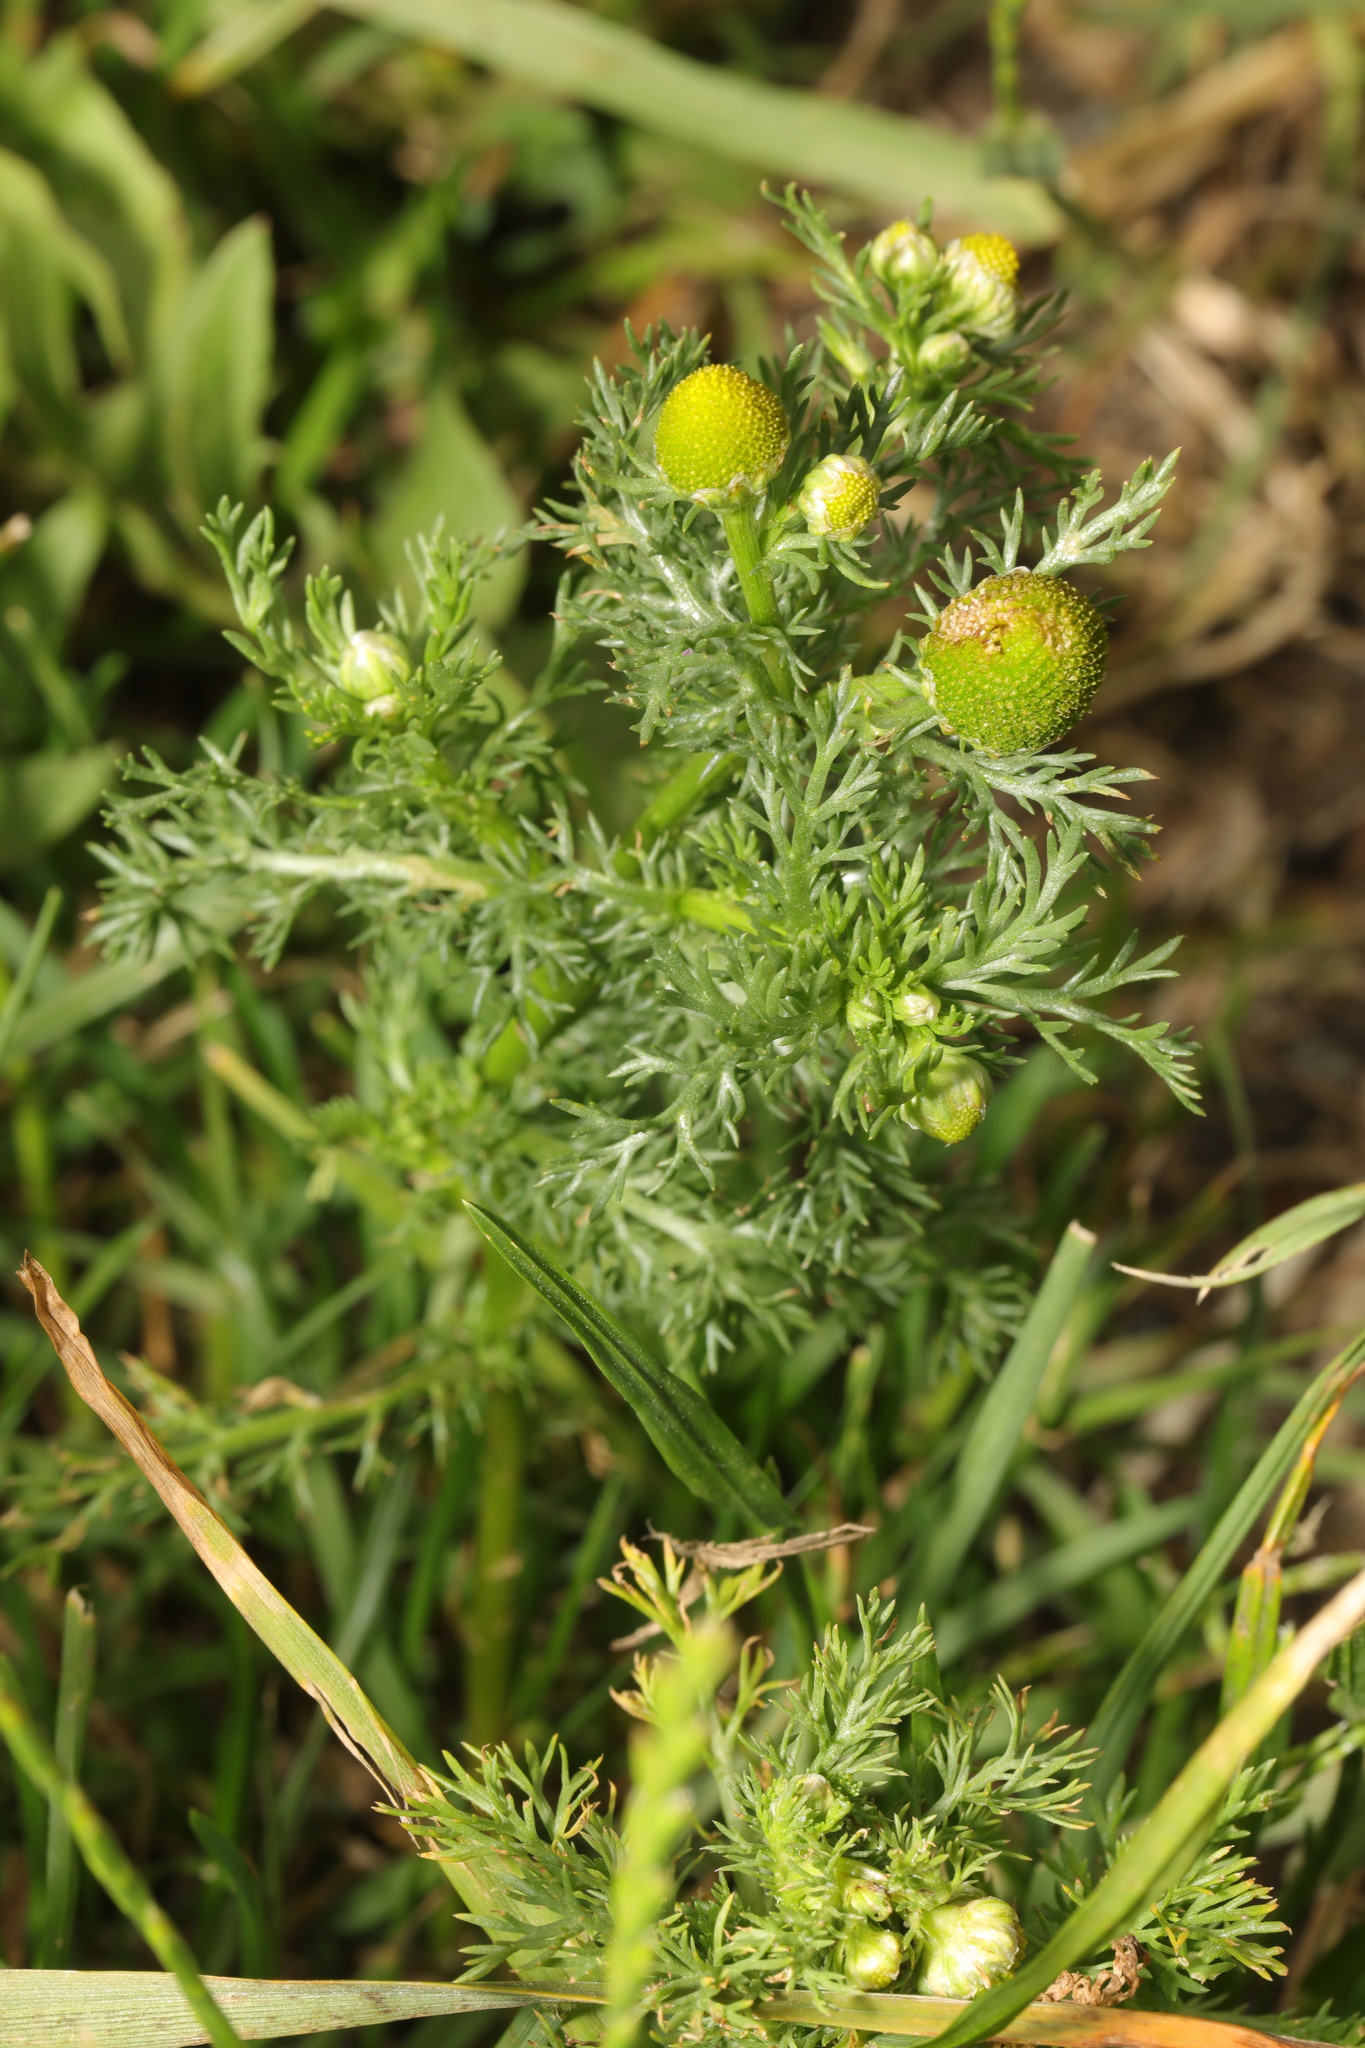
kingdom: Plantae
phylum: Tracheophyta
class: Magnoliopsida
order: Asterales
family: Asteraceae
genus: Matricaria
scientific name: Matricaria discoidea
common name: Disc mayweed
